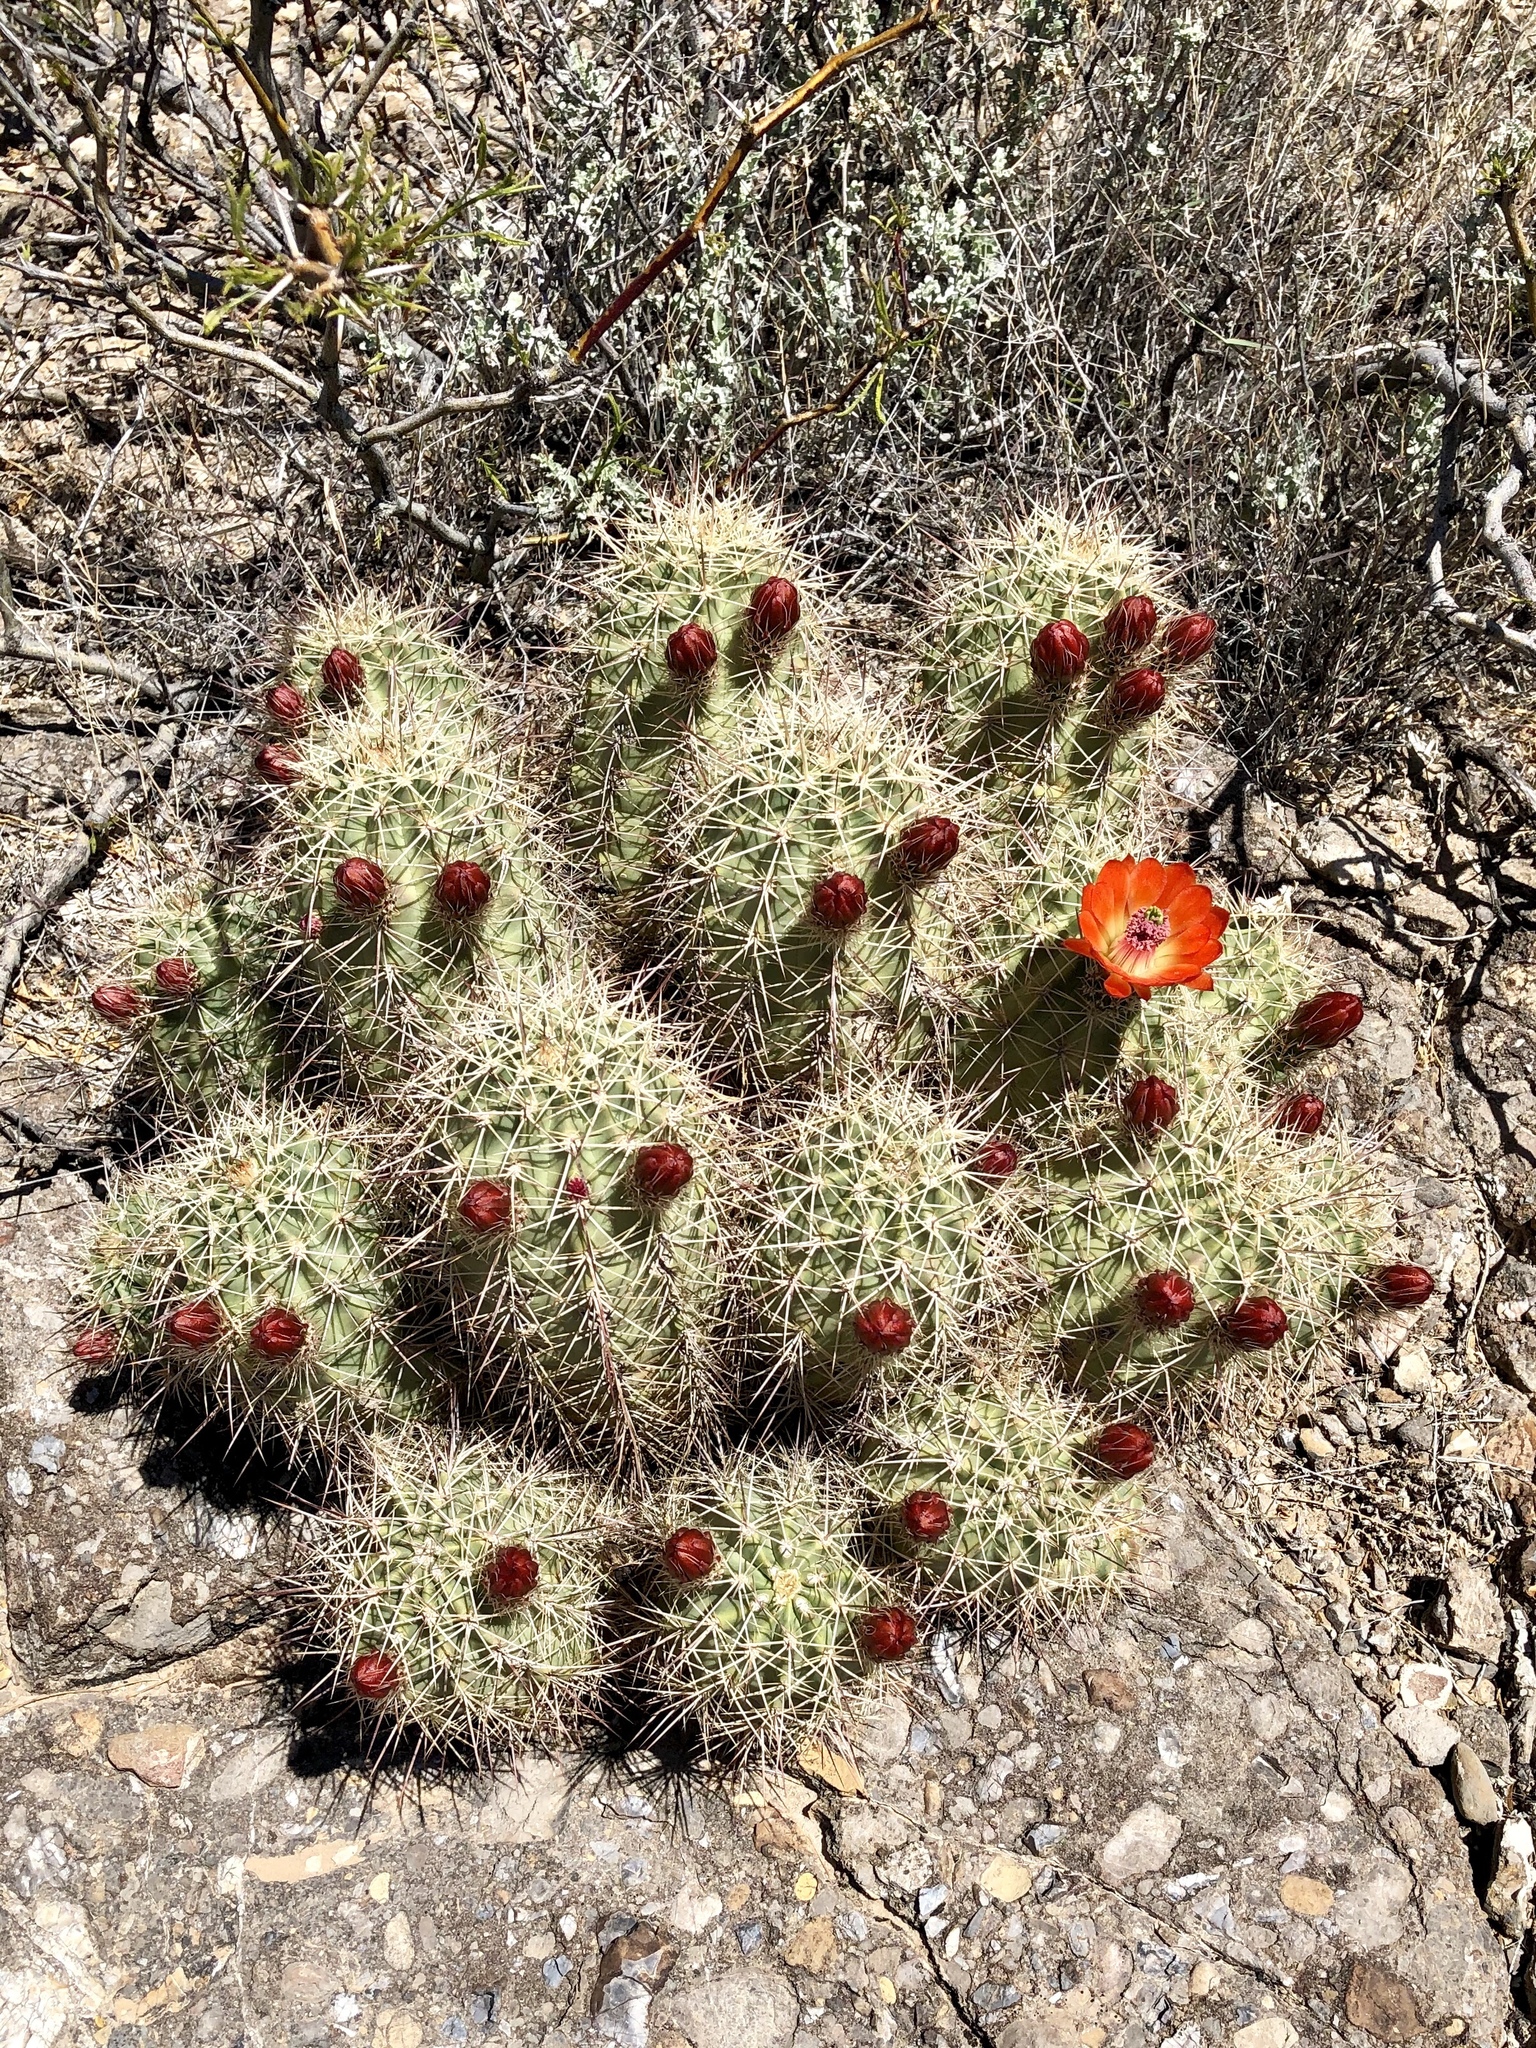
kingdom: Plantae
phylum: Tracheophyta
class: Magnoliopsida
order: Caryophyllales
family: Cactaceae
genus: Echinocereus
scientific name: Echinocereus coccineus
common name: Scarlet hedgehog cactus
